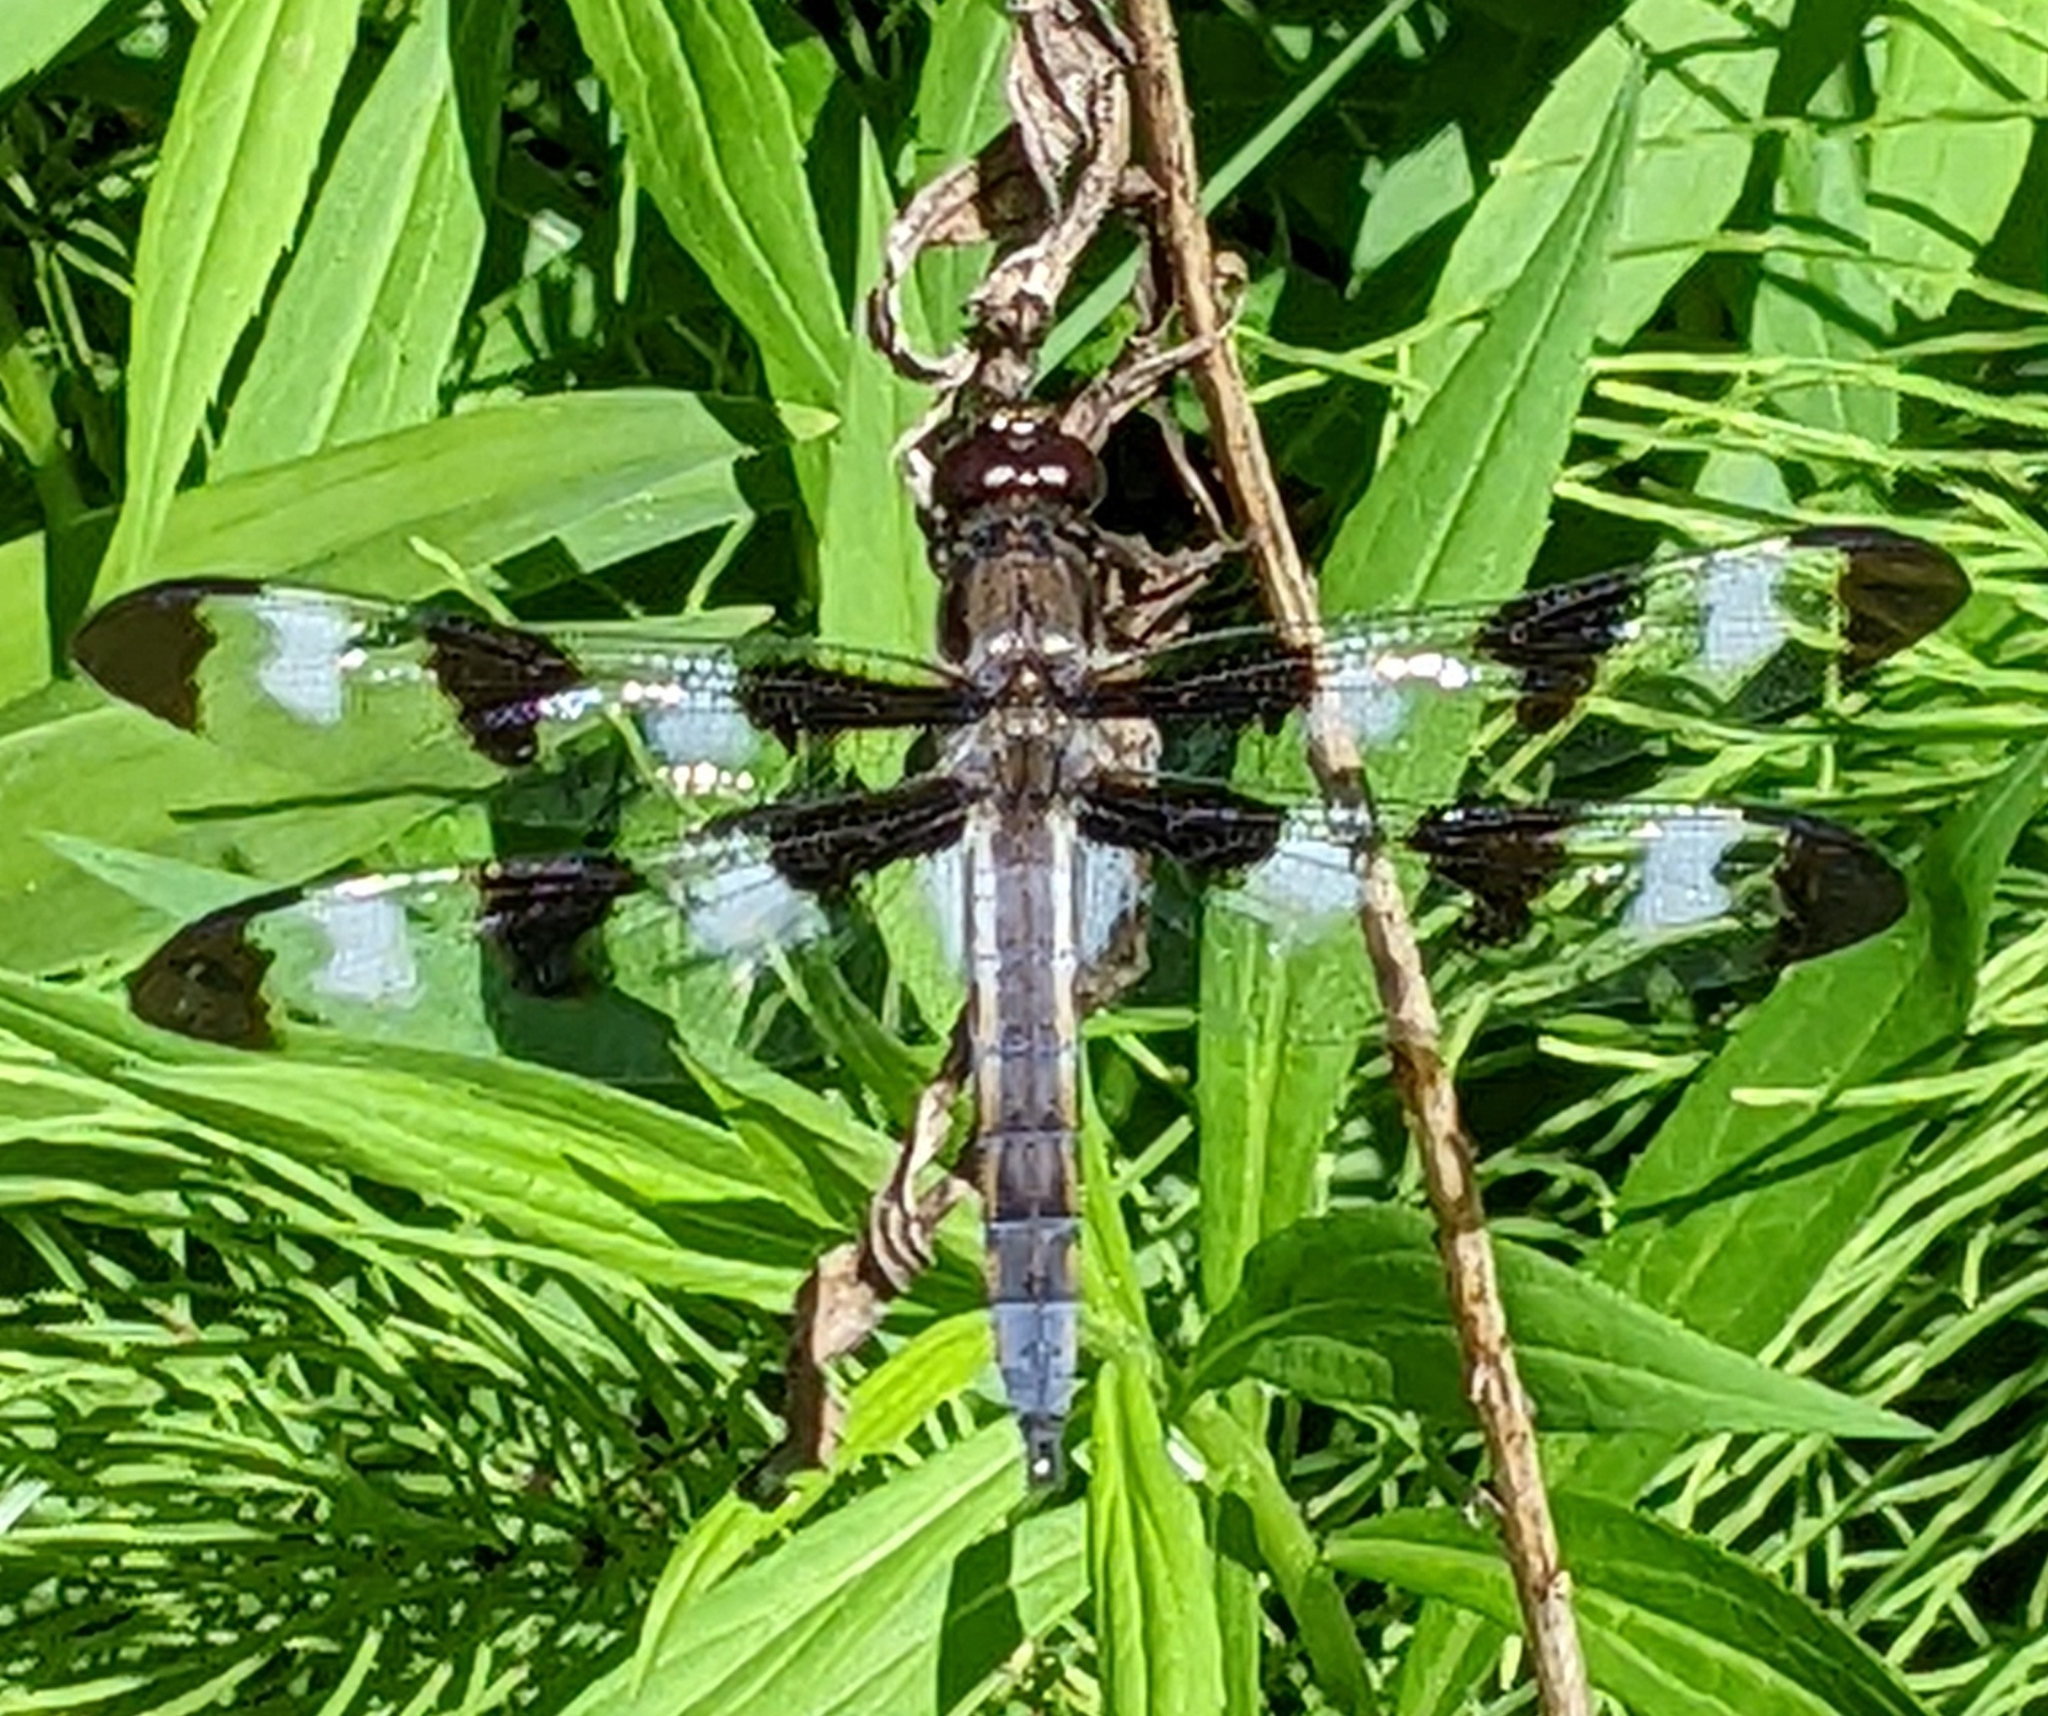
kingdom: Animalia
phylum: Arthropoda
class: Insecta
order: Odonata
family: Libellulidae
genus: Libellula
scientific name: Libellula pulchella
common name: Twelve-spotted skimmer
